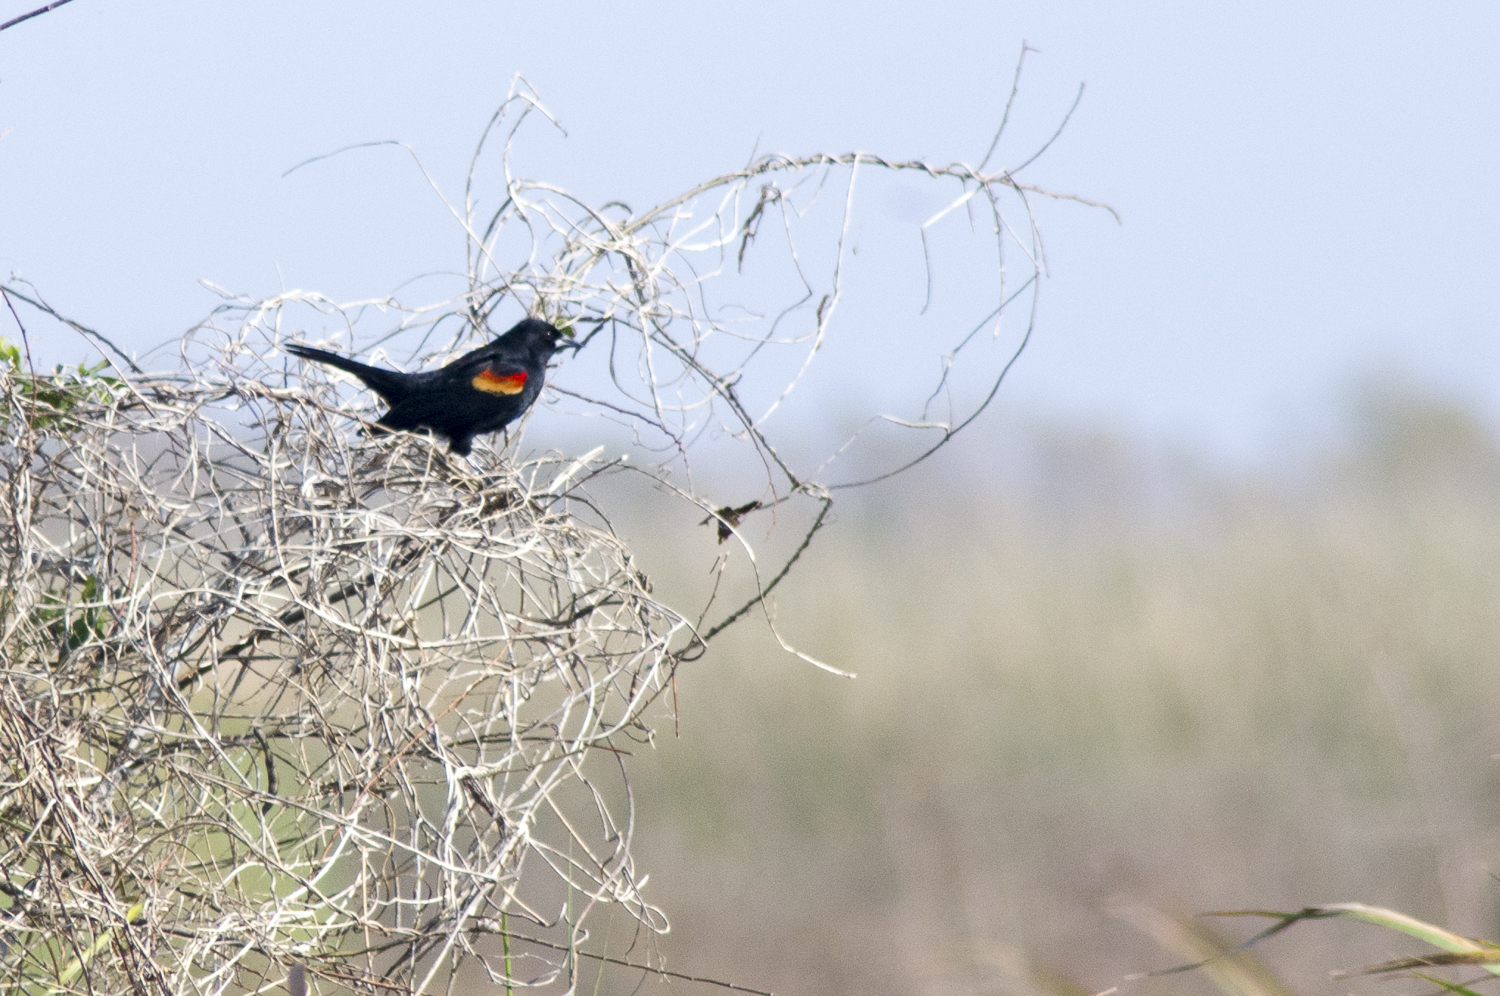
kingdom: Animalia
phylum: Chordata
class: Aves
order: Passeriformes
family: Icteridae
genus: Agelaius
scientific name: Agelaius phoeniceus
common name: Red-winged blackbird
